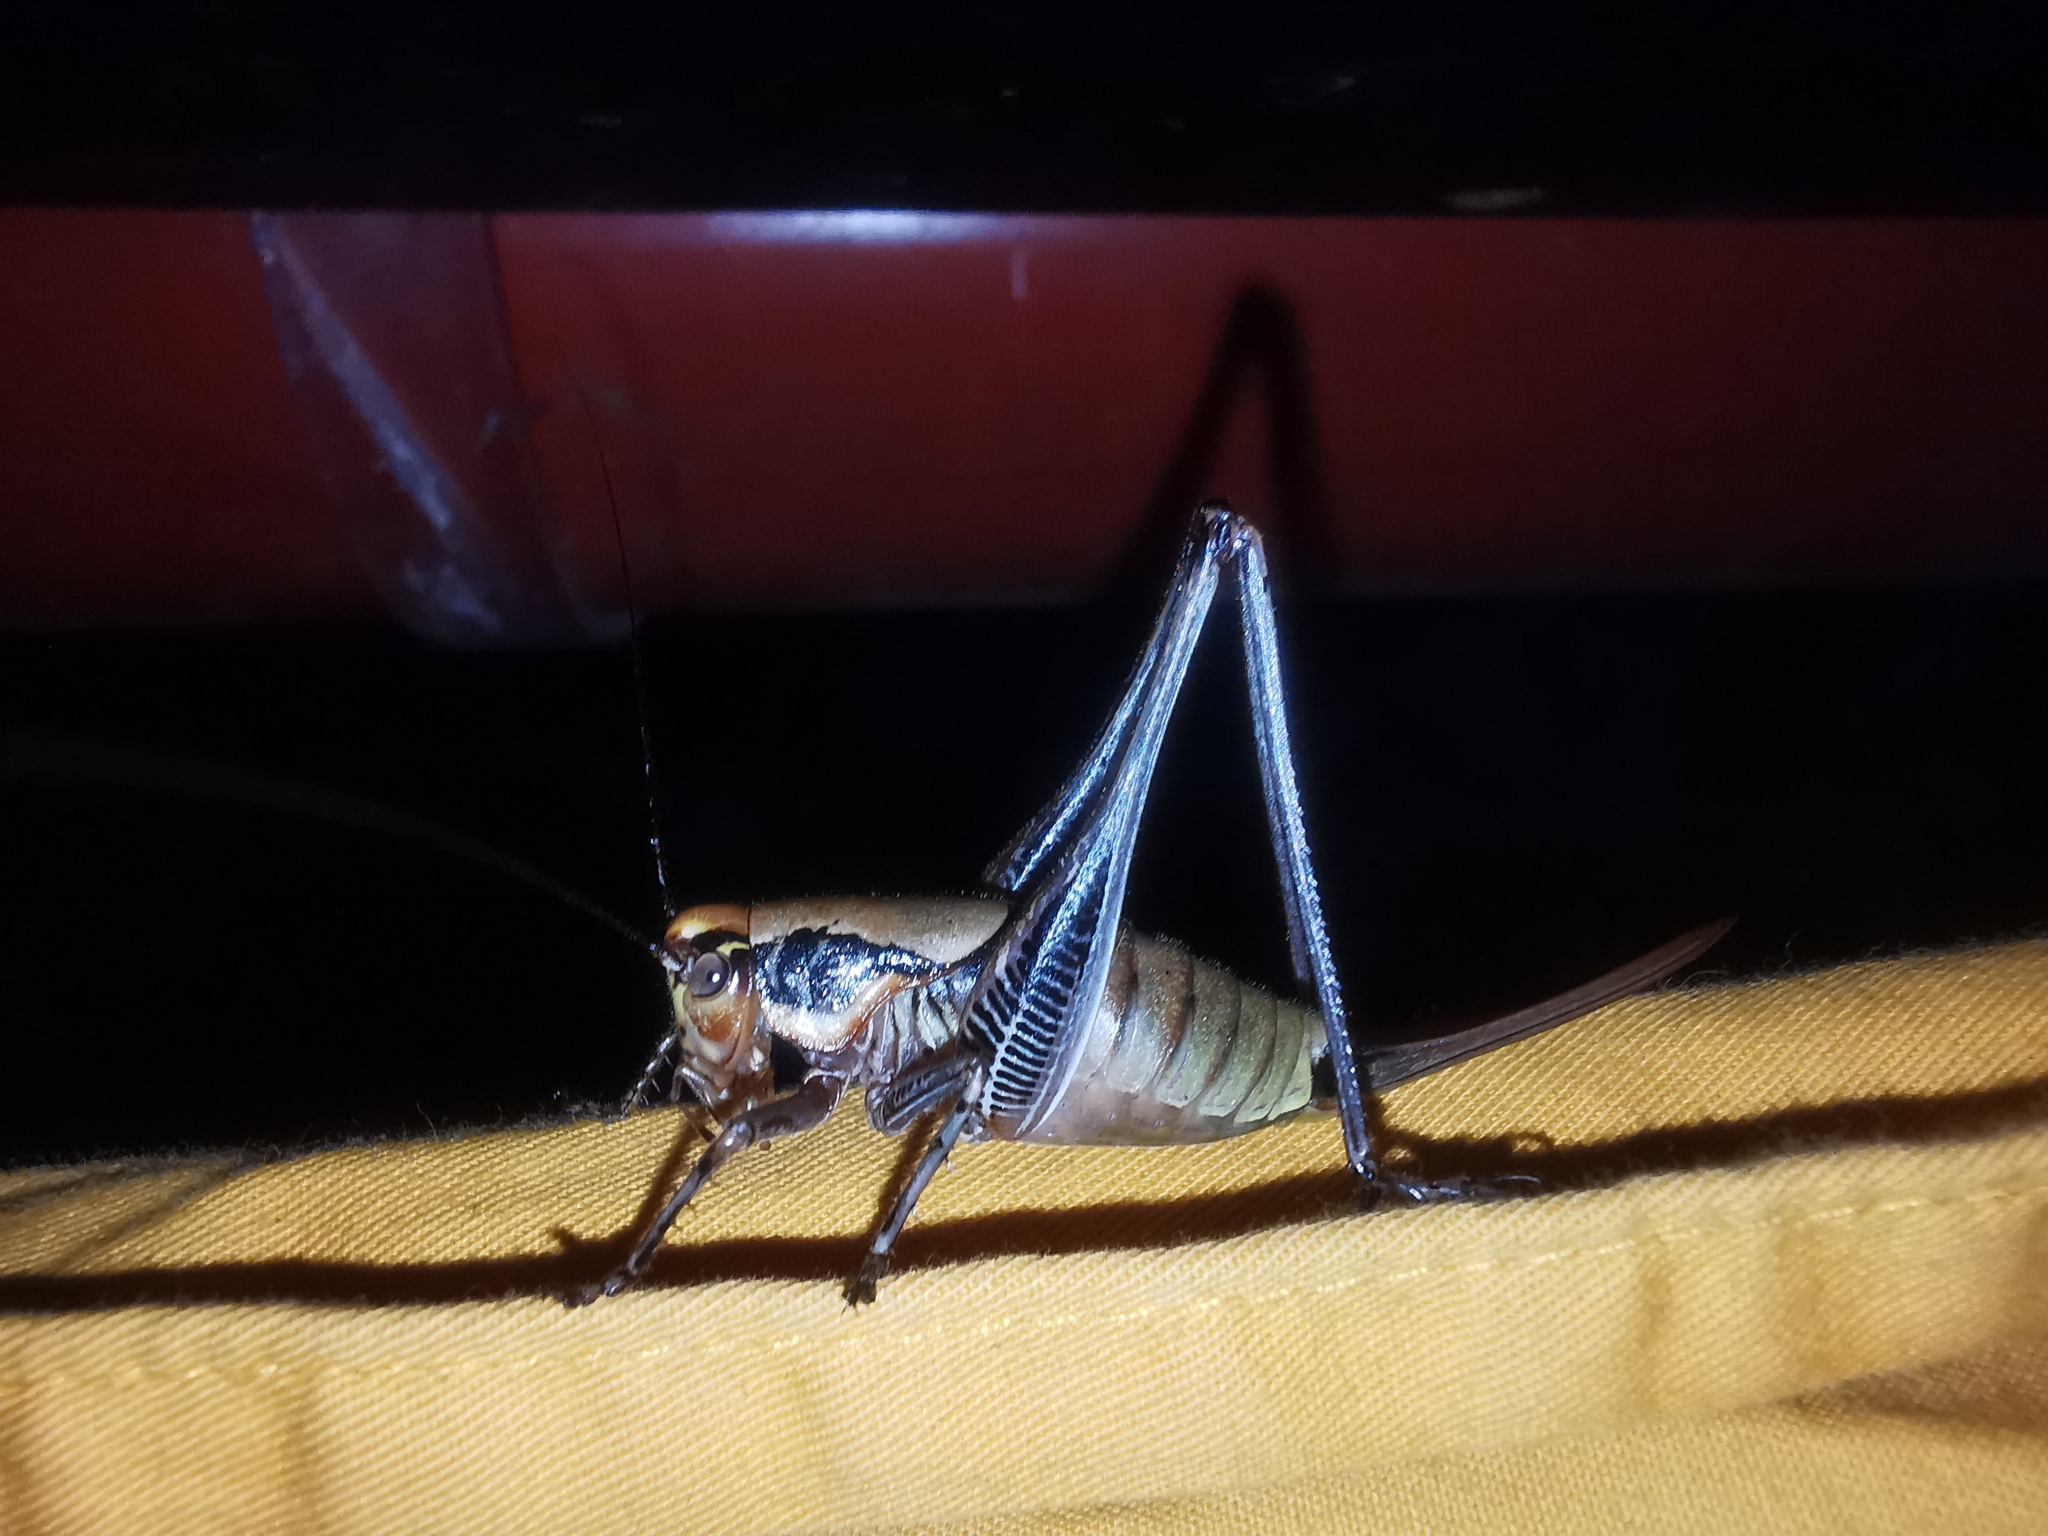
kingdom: Animalia
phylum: Arthropoda
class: Insecta
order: Orthoptera
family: Tettigoniidae
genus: Eupholidoptera
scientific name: Eupholidoptera megastyla
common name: Greek marbled bush-cricket
